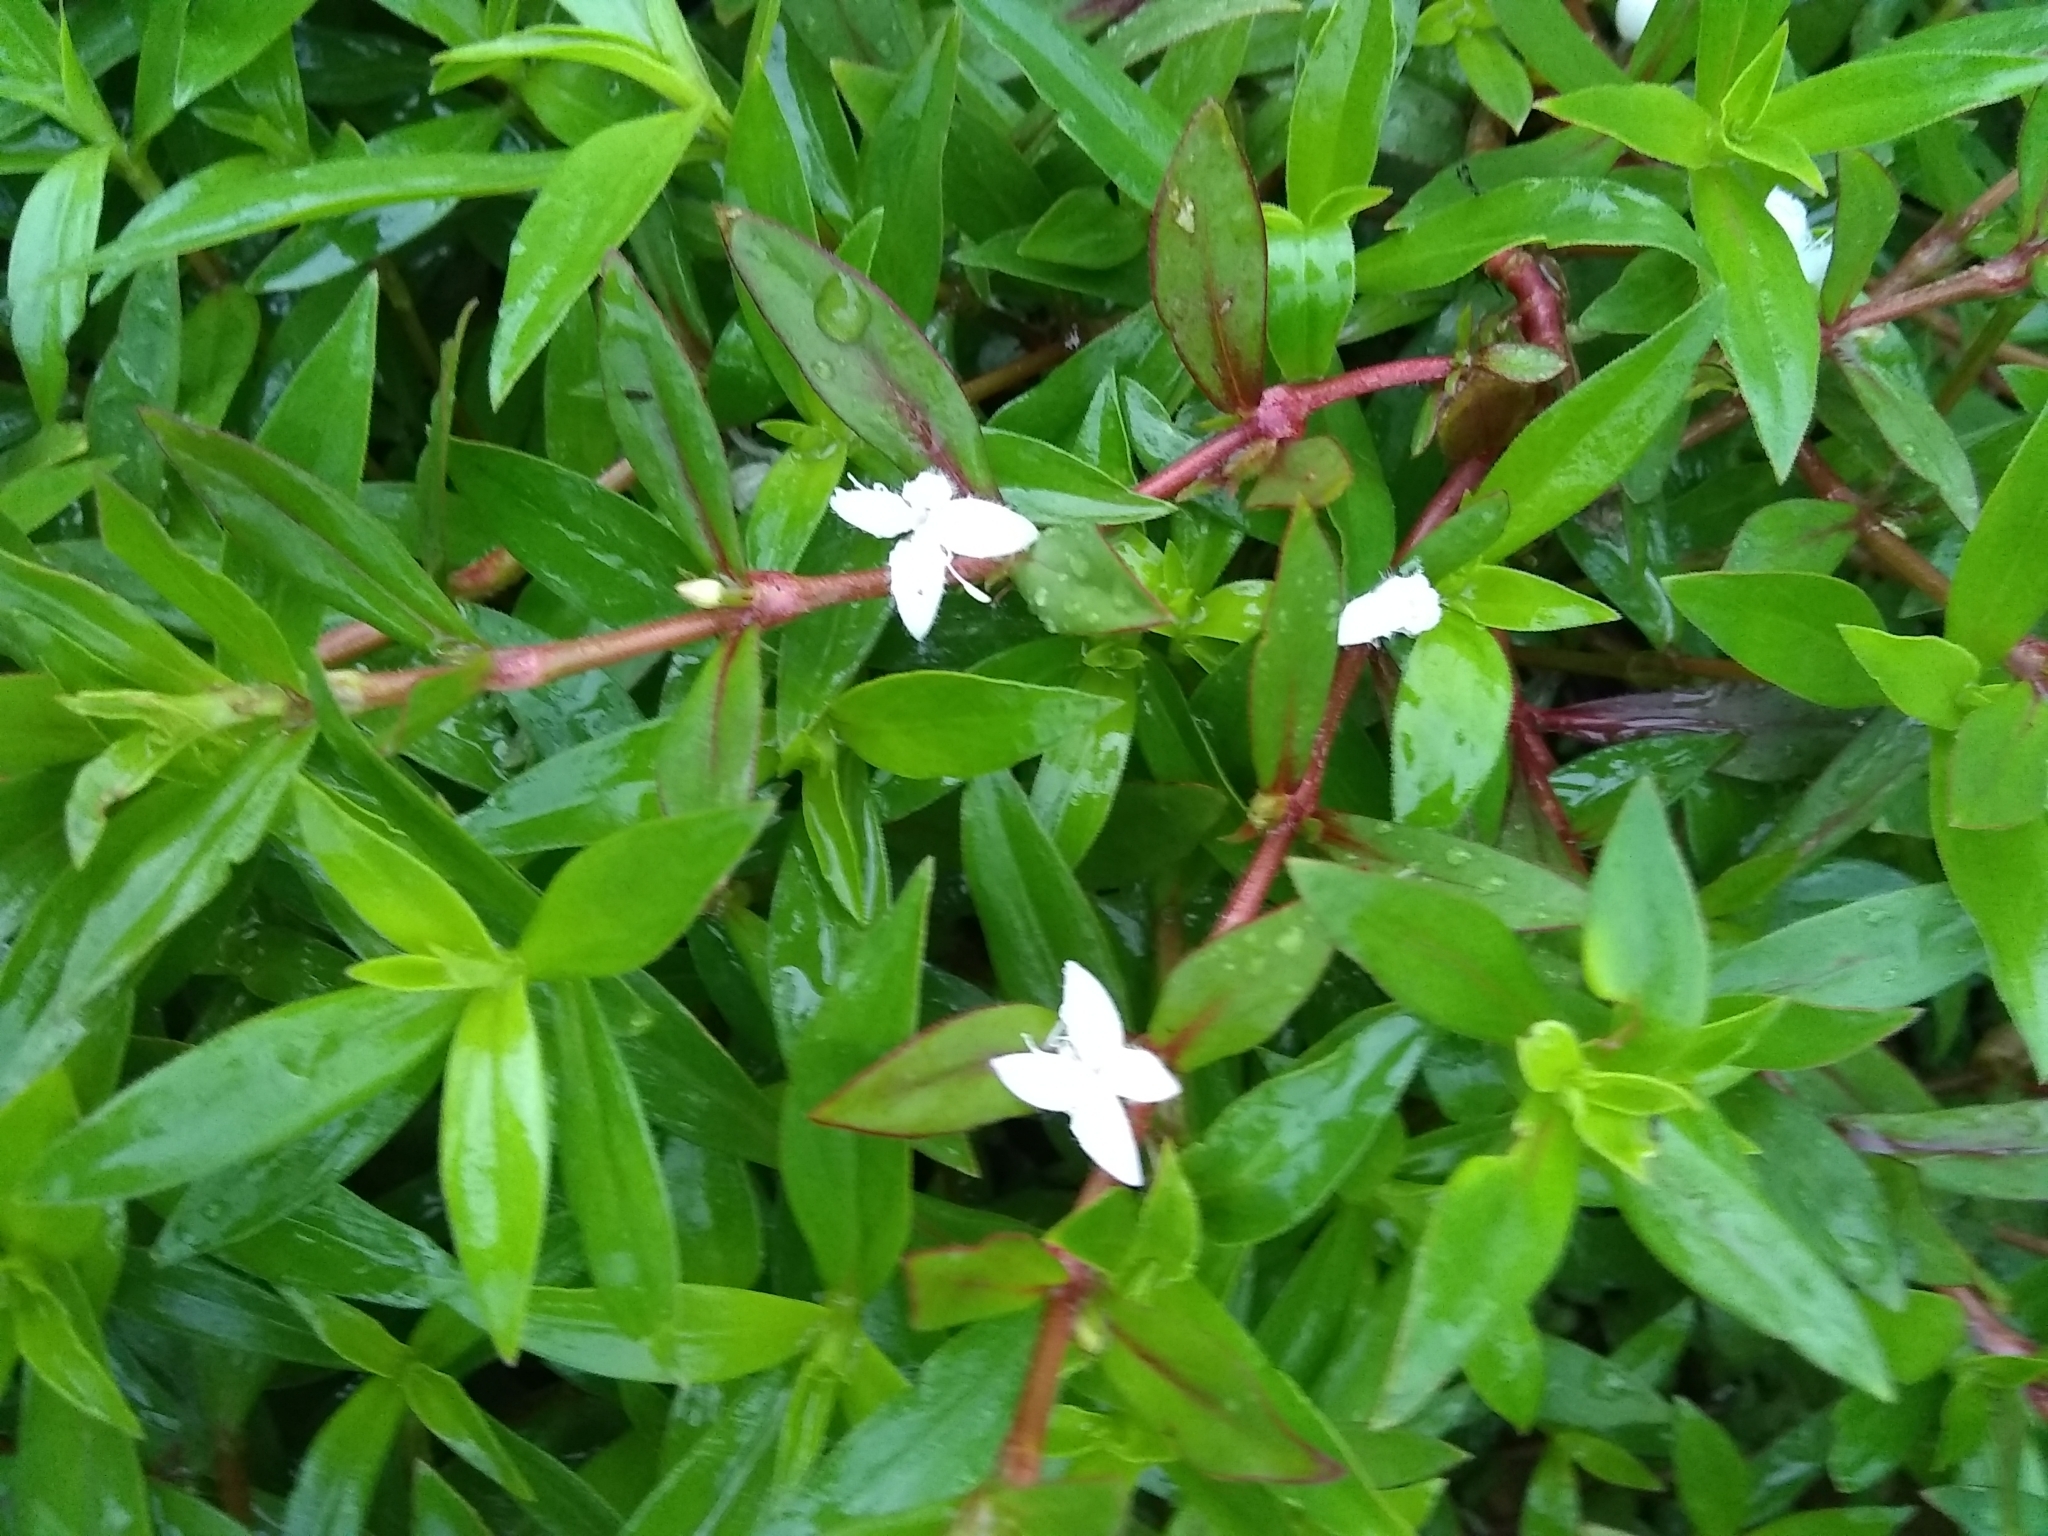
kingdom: Plantae
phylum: Tracheophyta
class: Magnoliopsida
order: Gentianales
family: Rubiaceae
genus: Diodia
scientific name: Diodia virginiana
